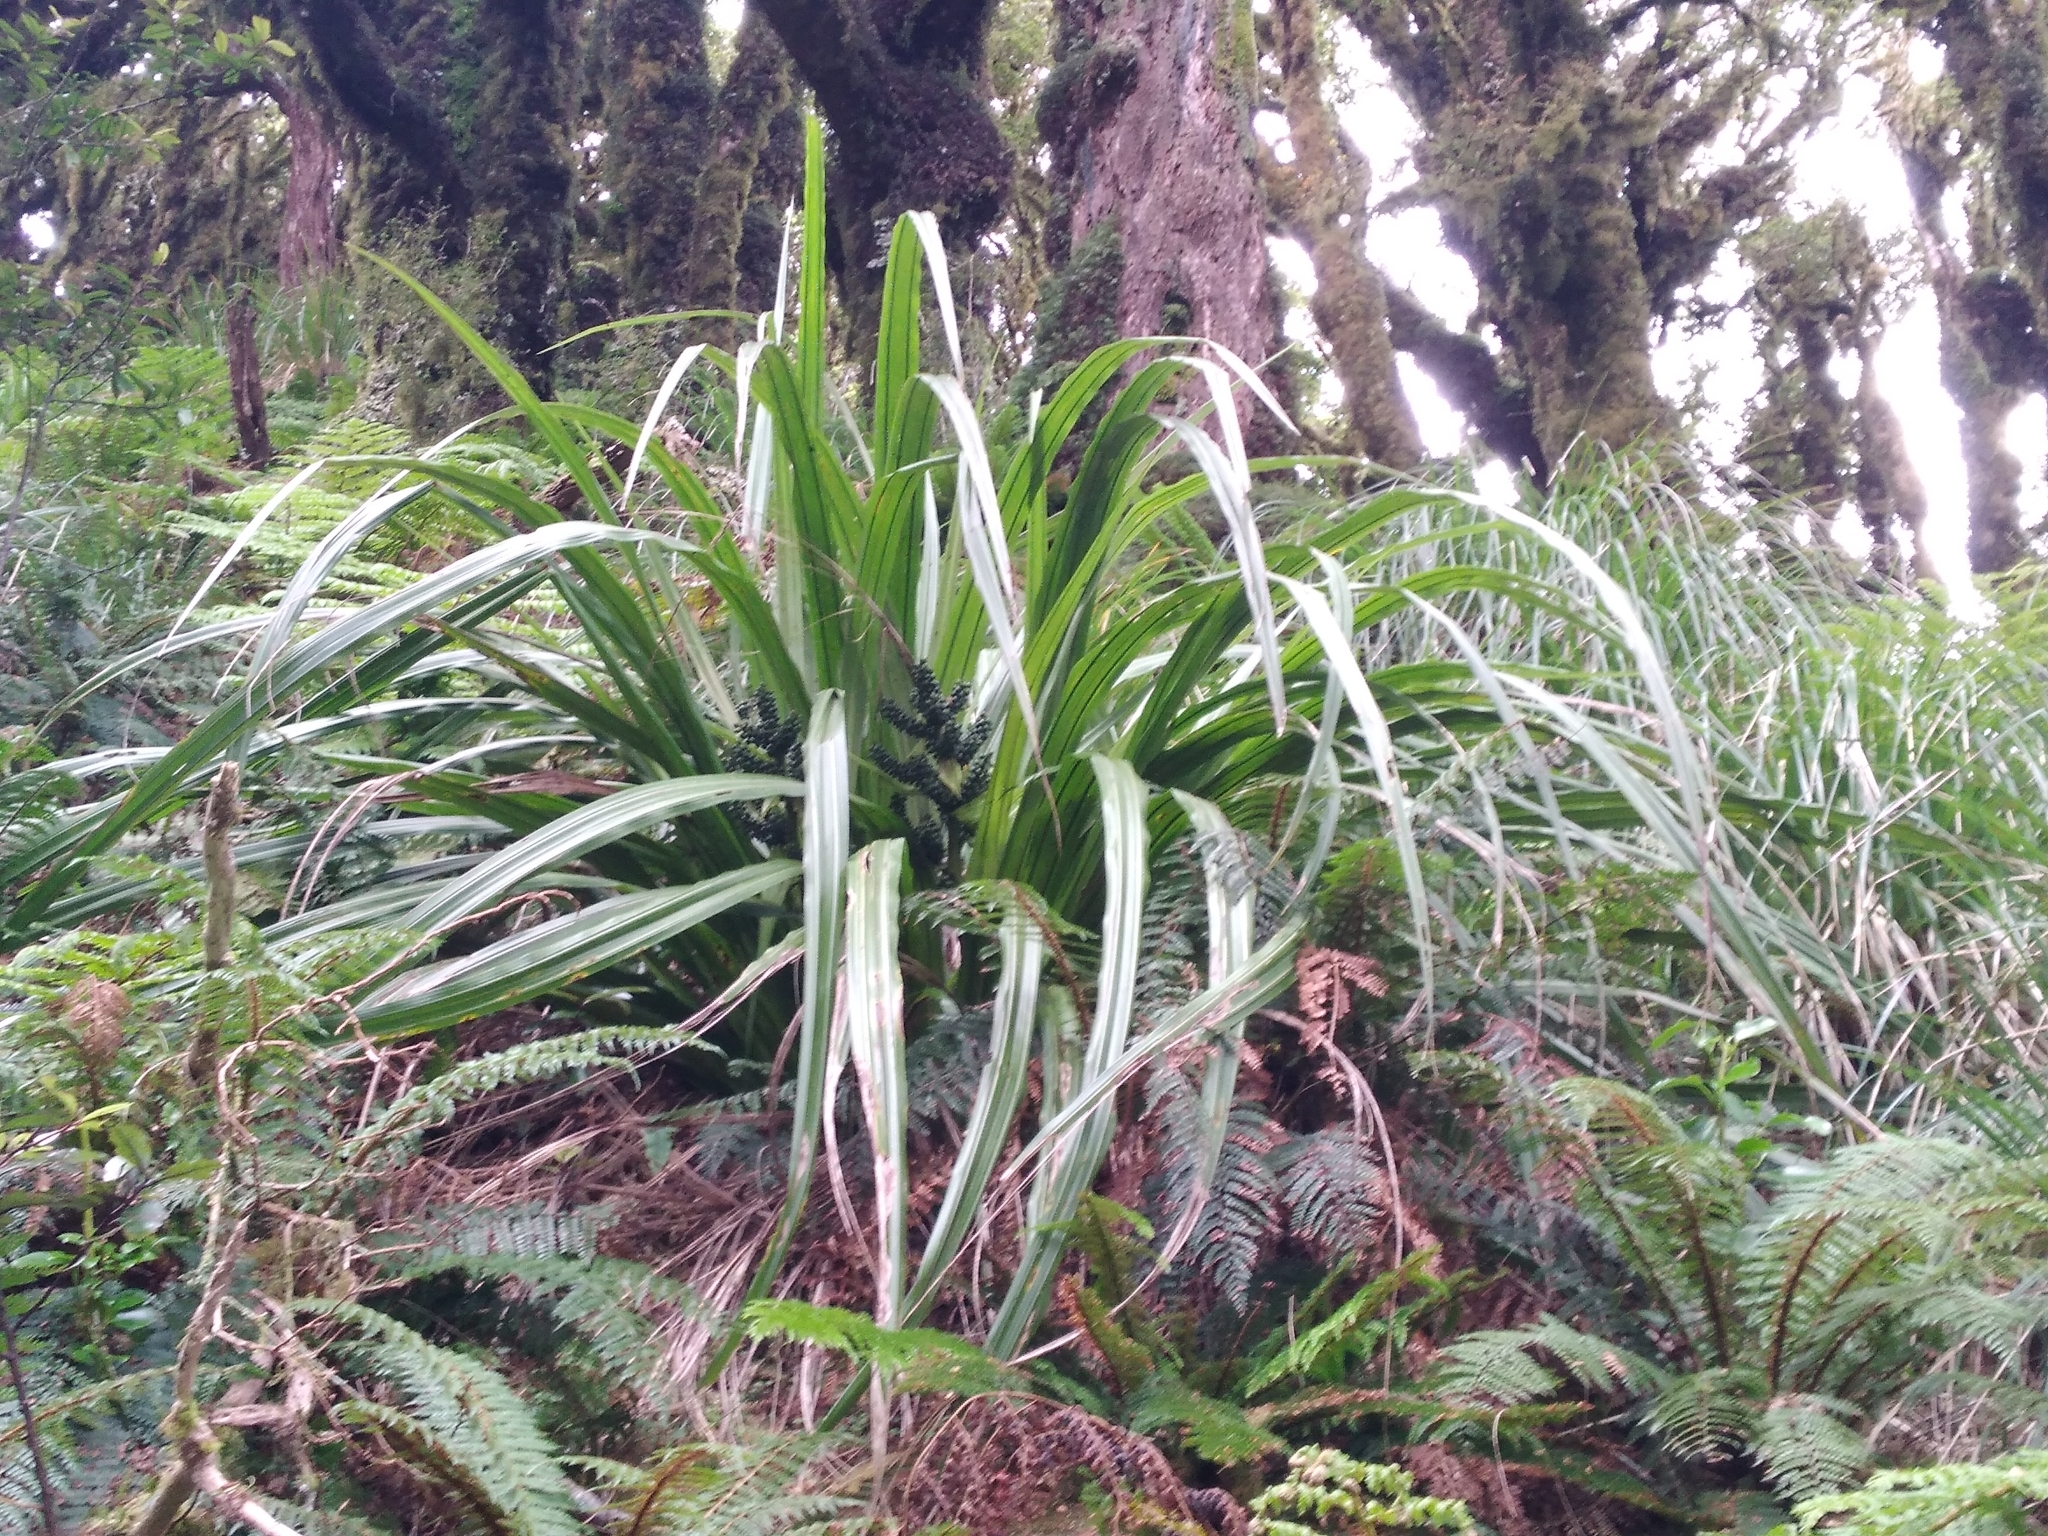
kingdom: Plantae
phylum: Tracheophyta
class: Liliopsida
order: Asparagales
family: Asteliaceae
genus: Astelia
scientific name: Astelia fragrans
